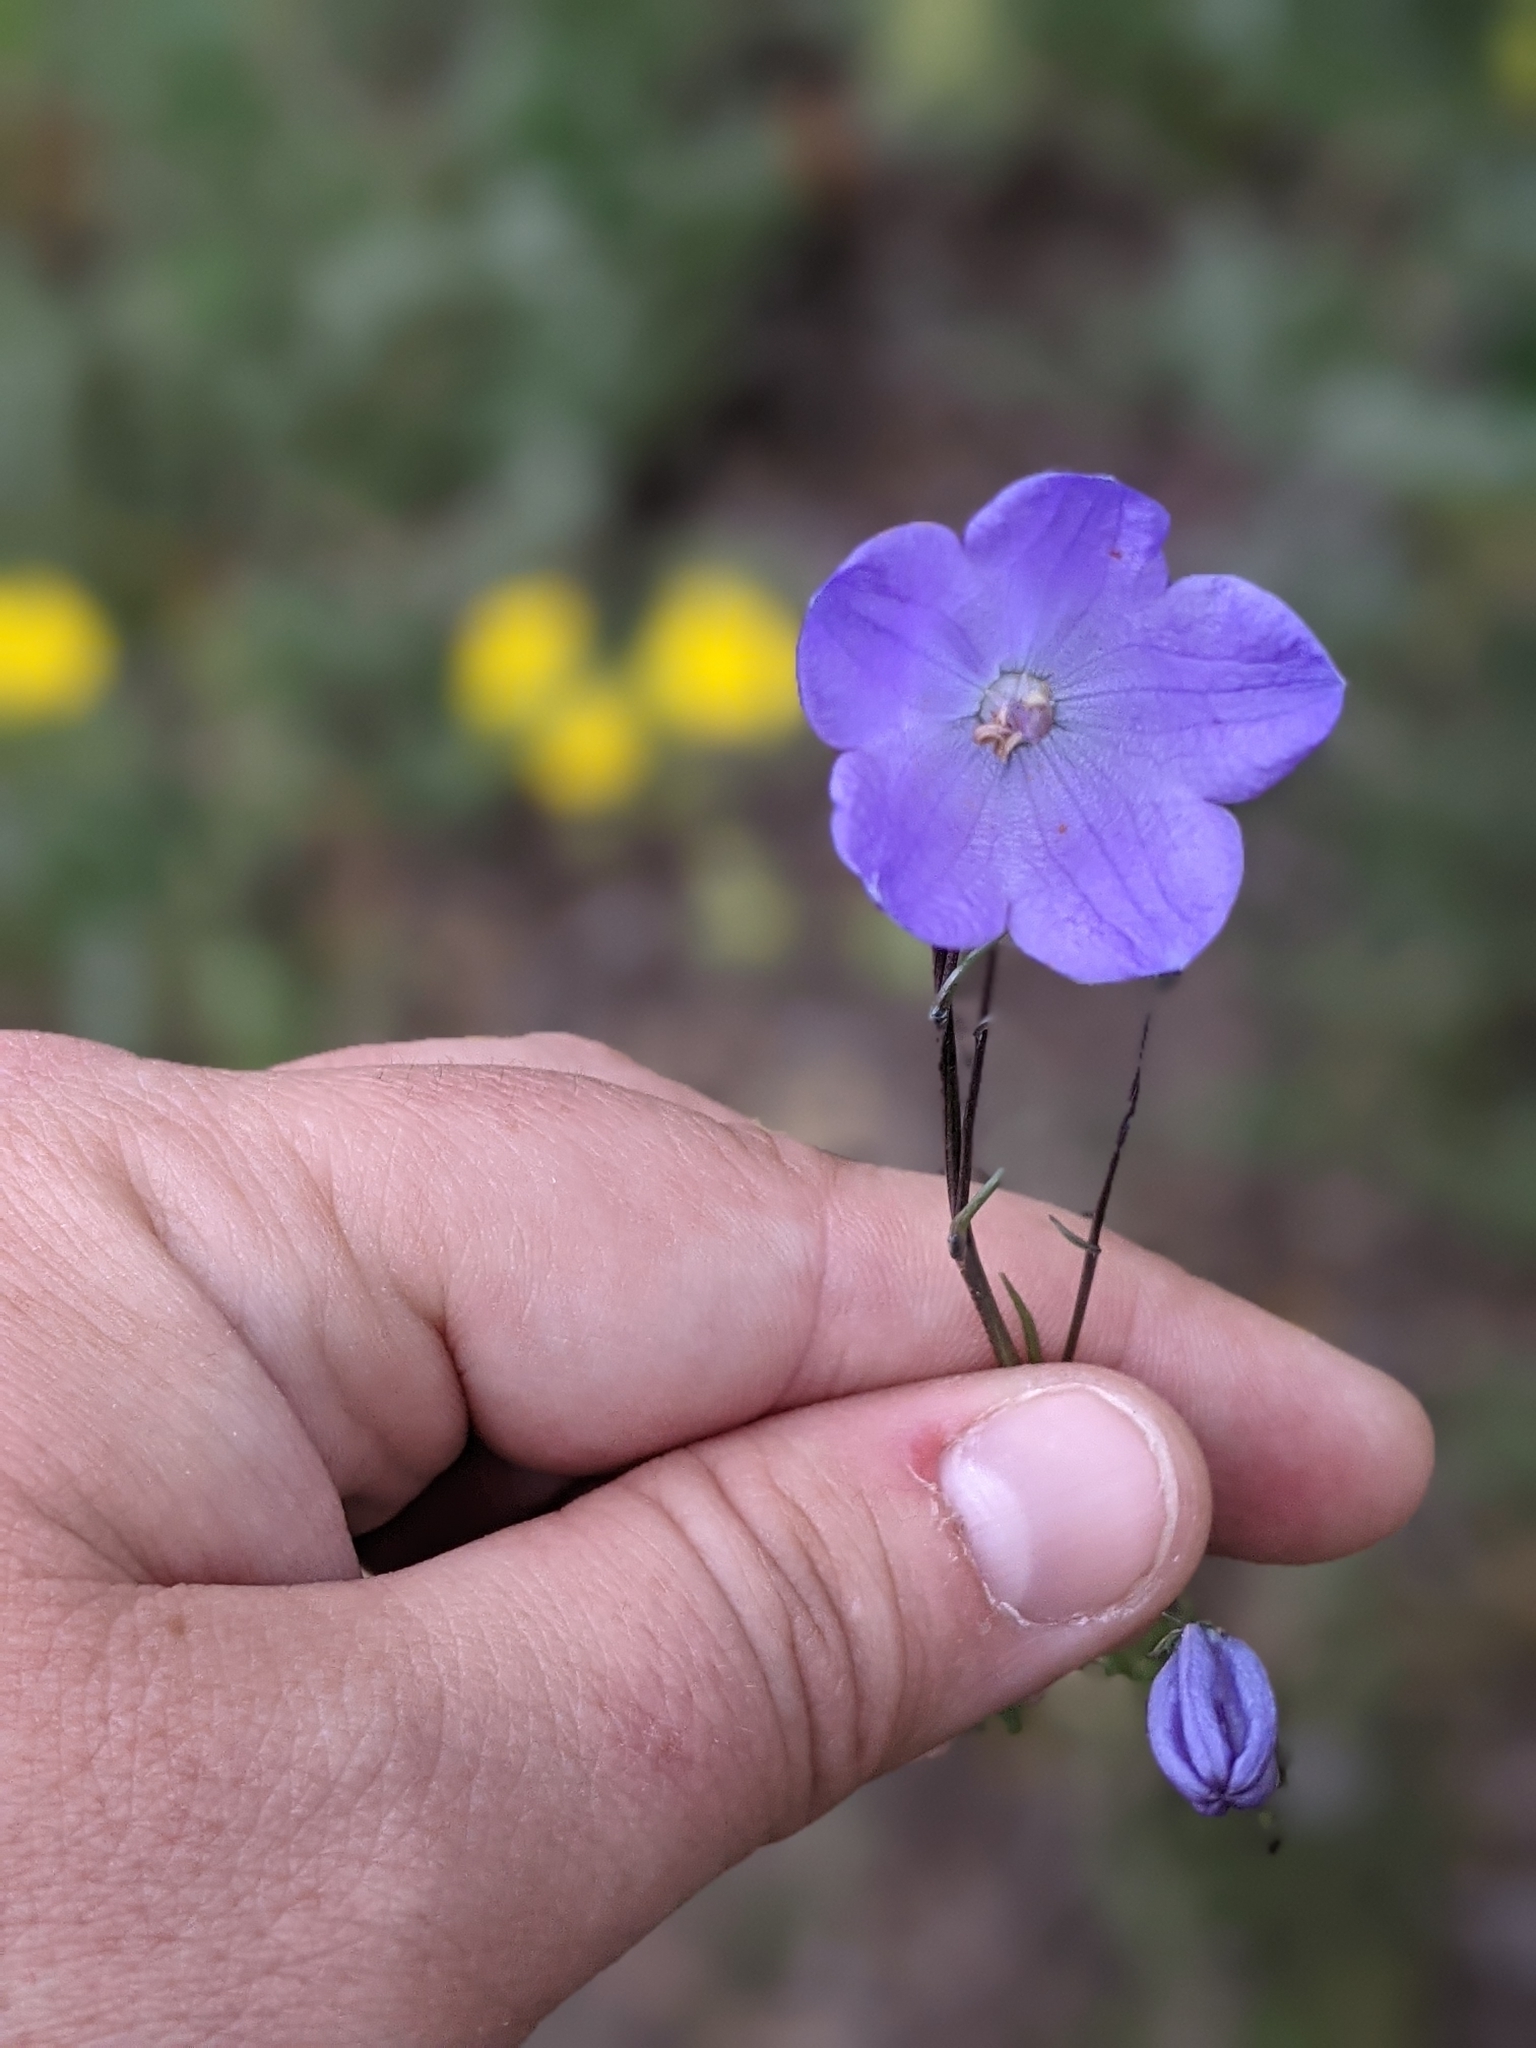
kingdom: Plantae
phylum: Tracheophyta
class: Magnoliopsida
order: Asterales
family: Campanulaceae
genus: Campanula
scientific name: Campanula petiolata
